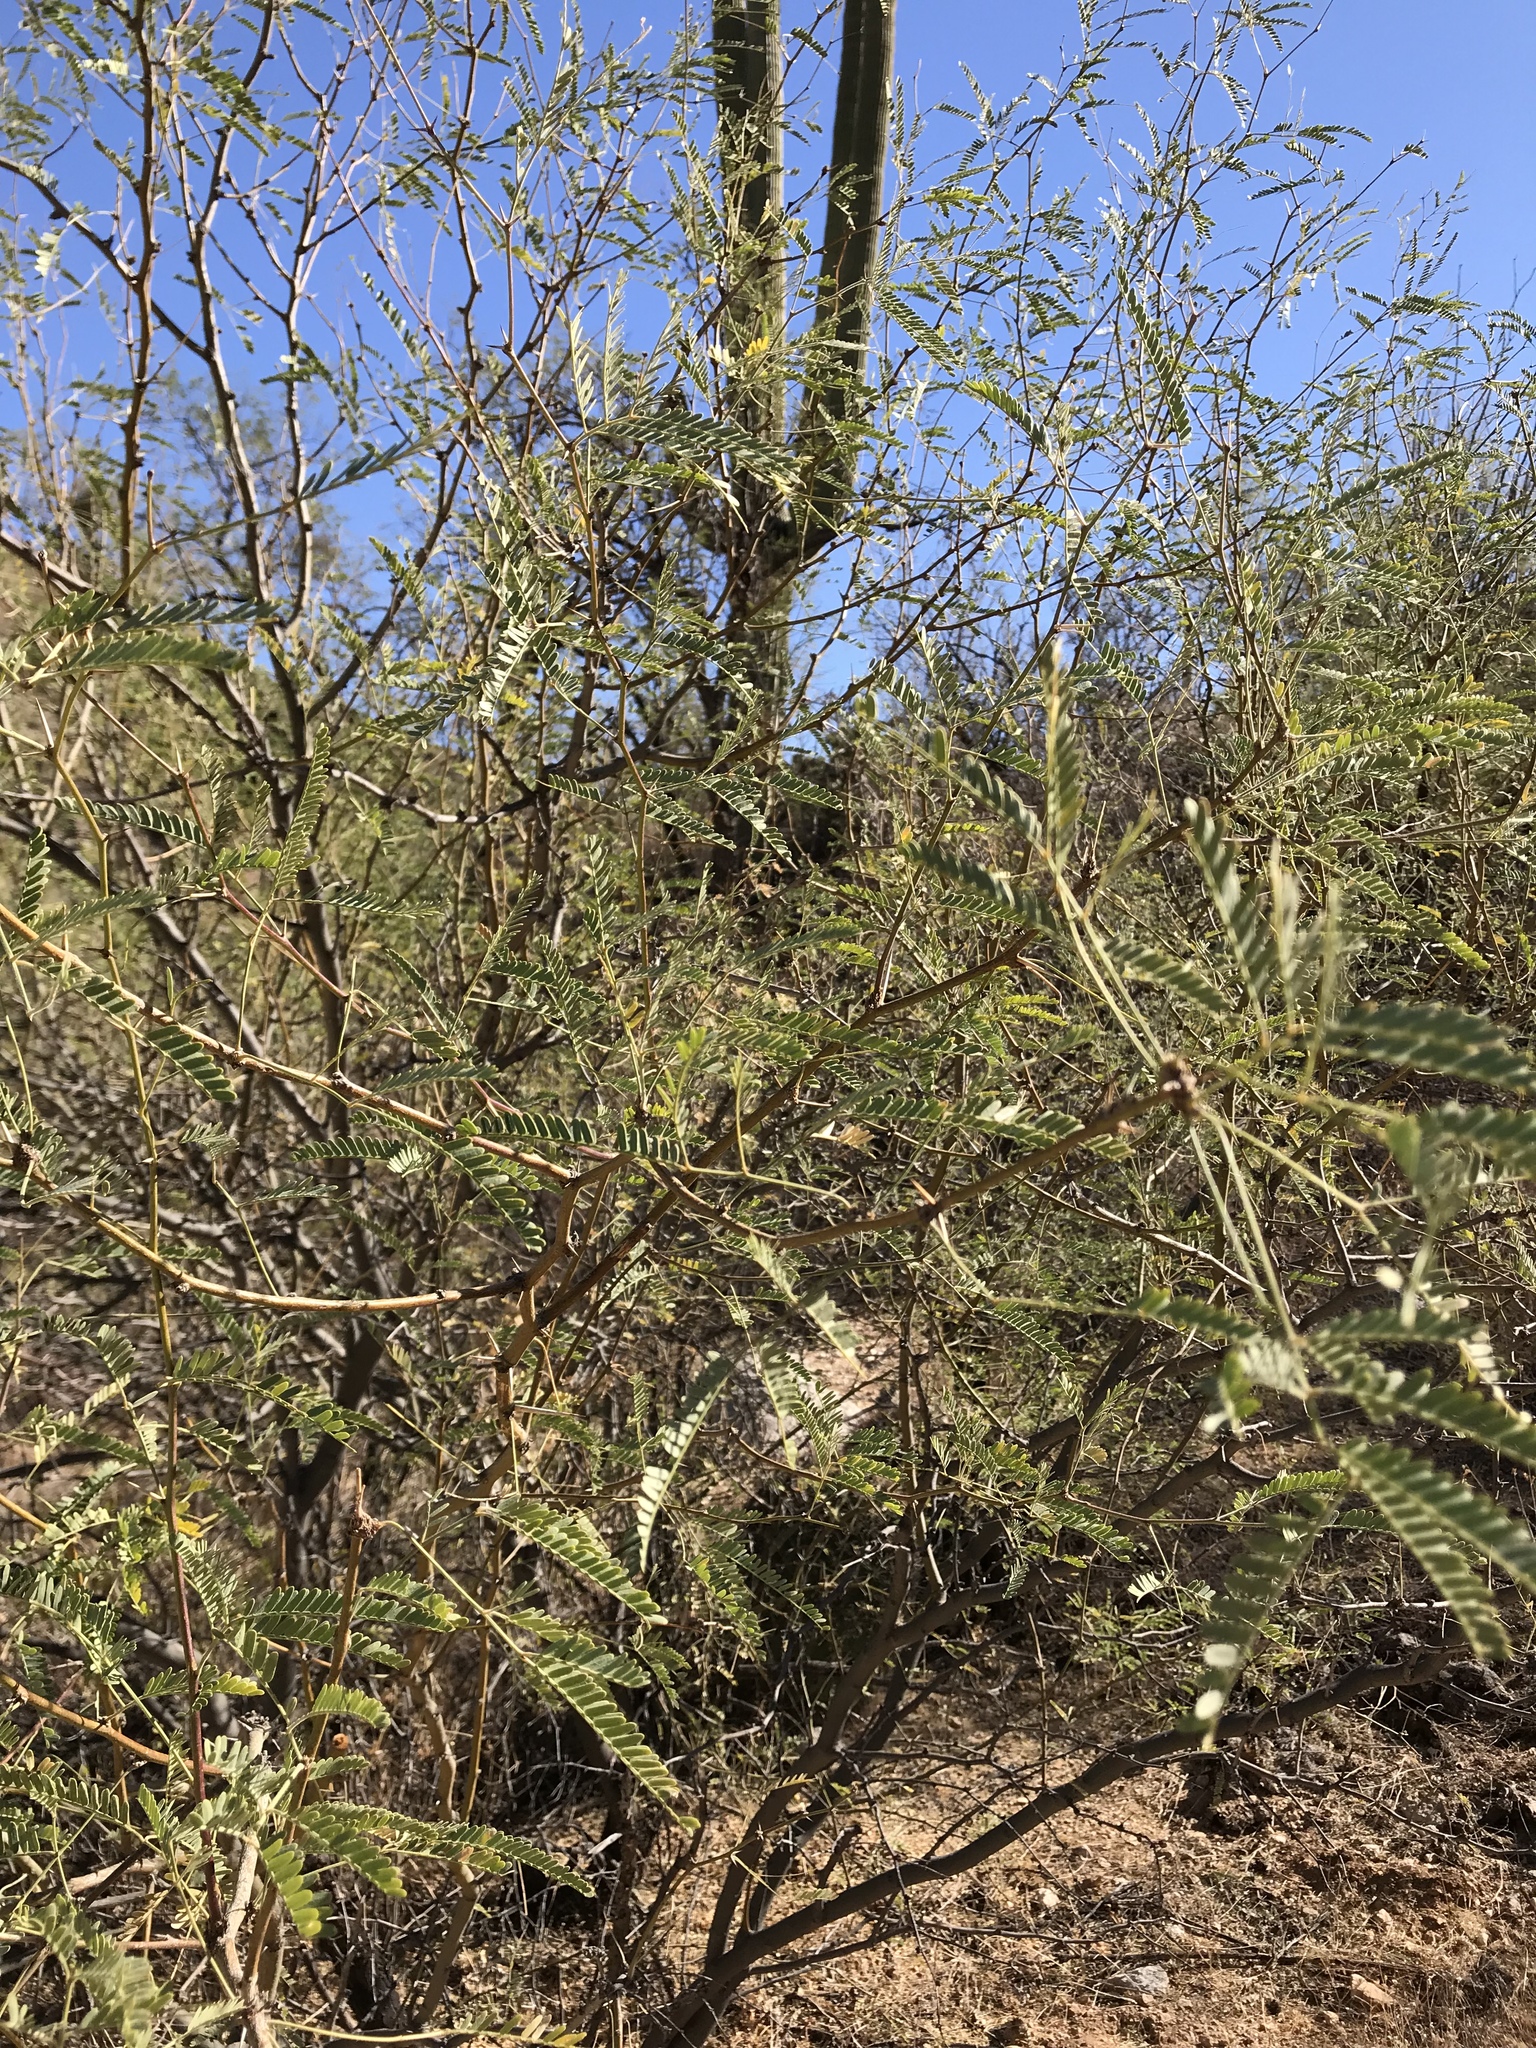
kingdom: Plantae
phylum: Tracheophyta
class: Magnoliopsida
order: Fabales
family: Fabaceae
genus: Prosopis
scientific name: Prosopis velutina
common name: Velvet mesquite
